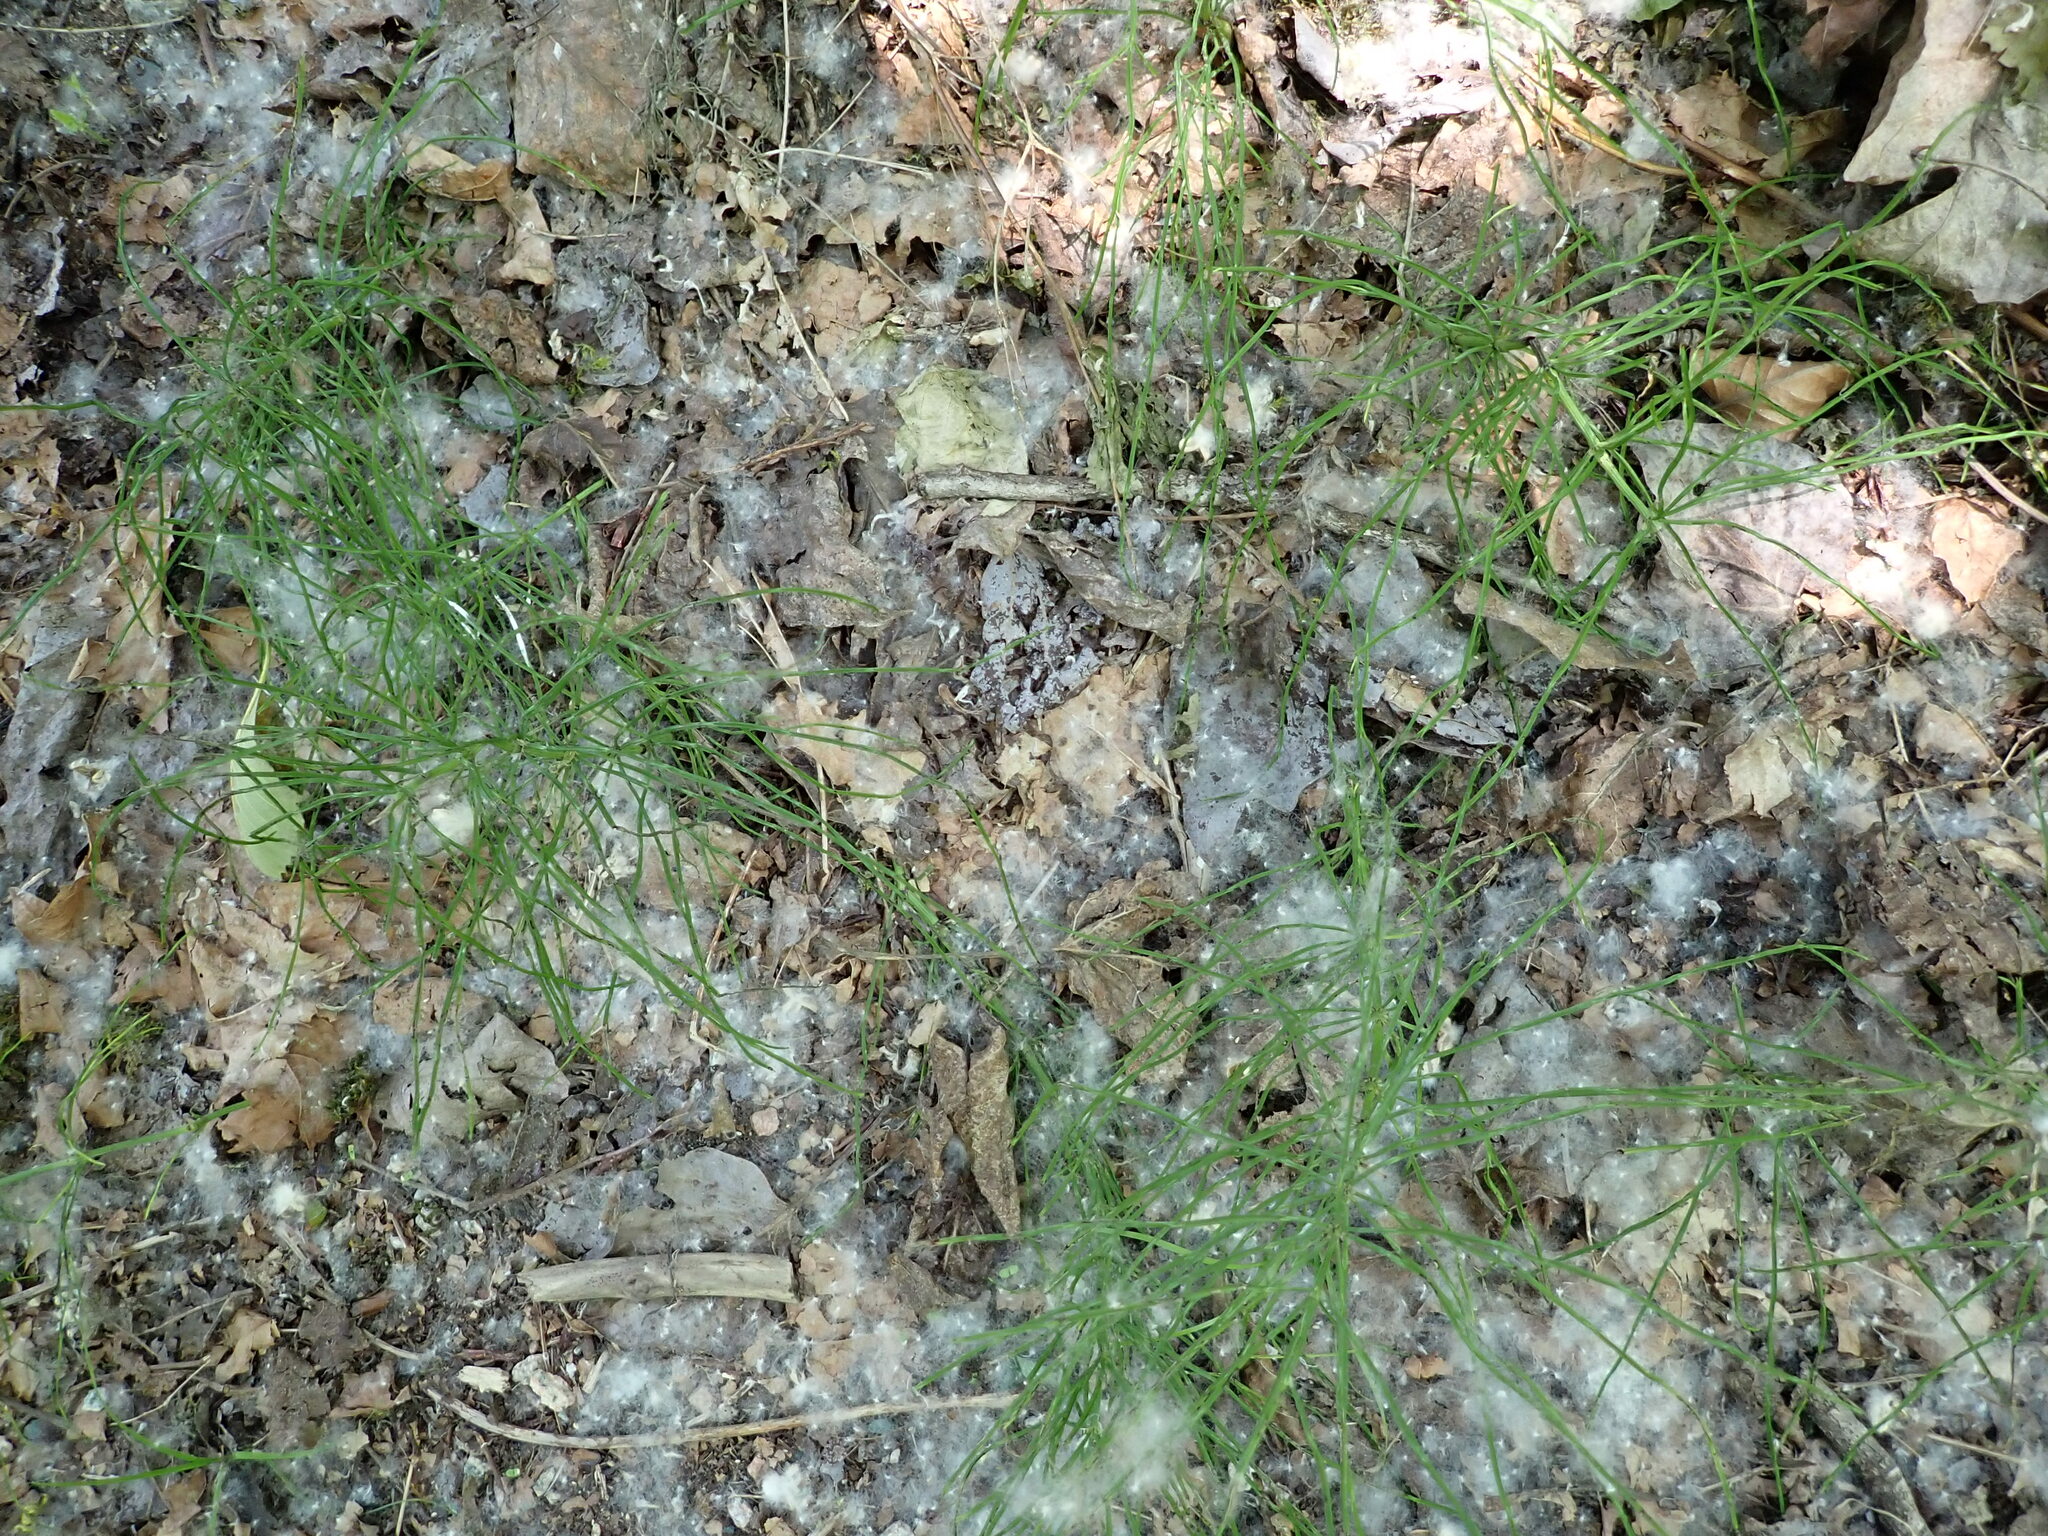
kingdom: Plantae
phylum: Tracheophyta
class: Polypodiopsida
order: Equisetales
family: Equisetaceae
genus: Equisetum
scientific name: Equisetum arvense
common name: Field horsetail
